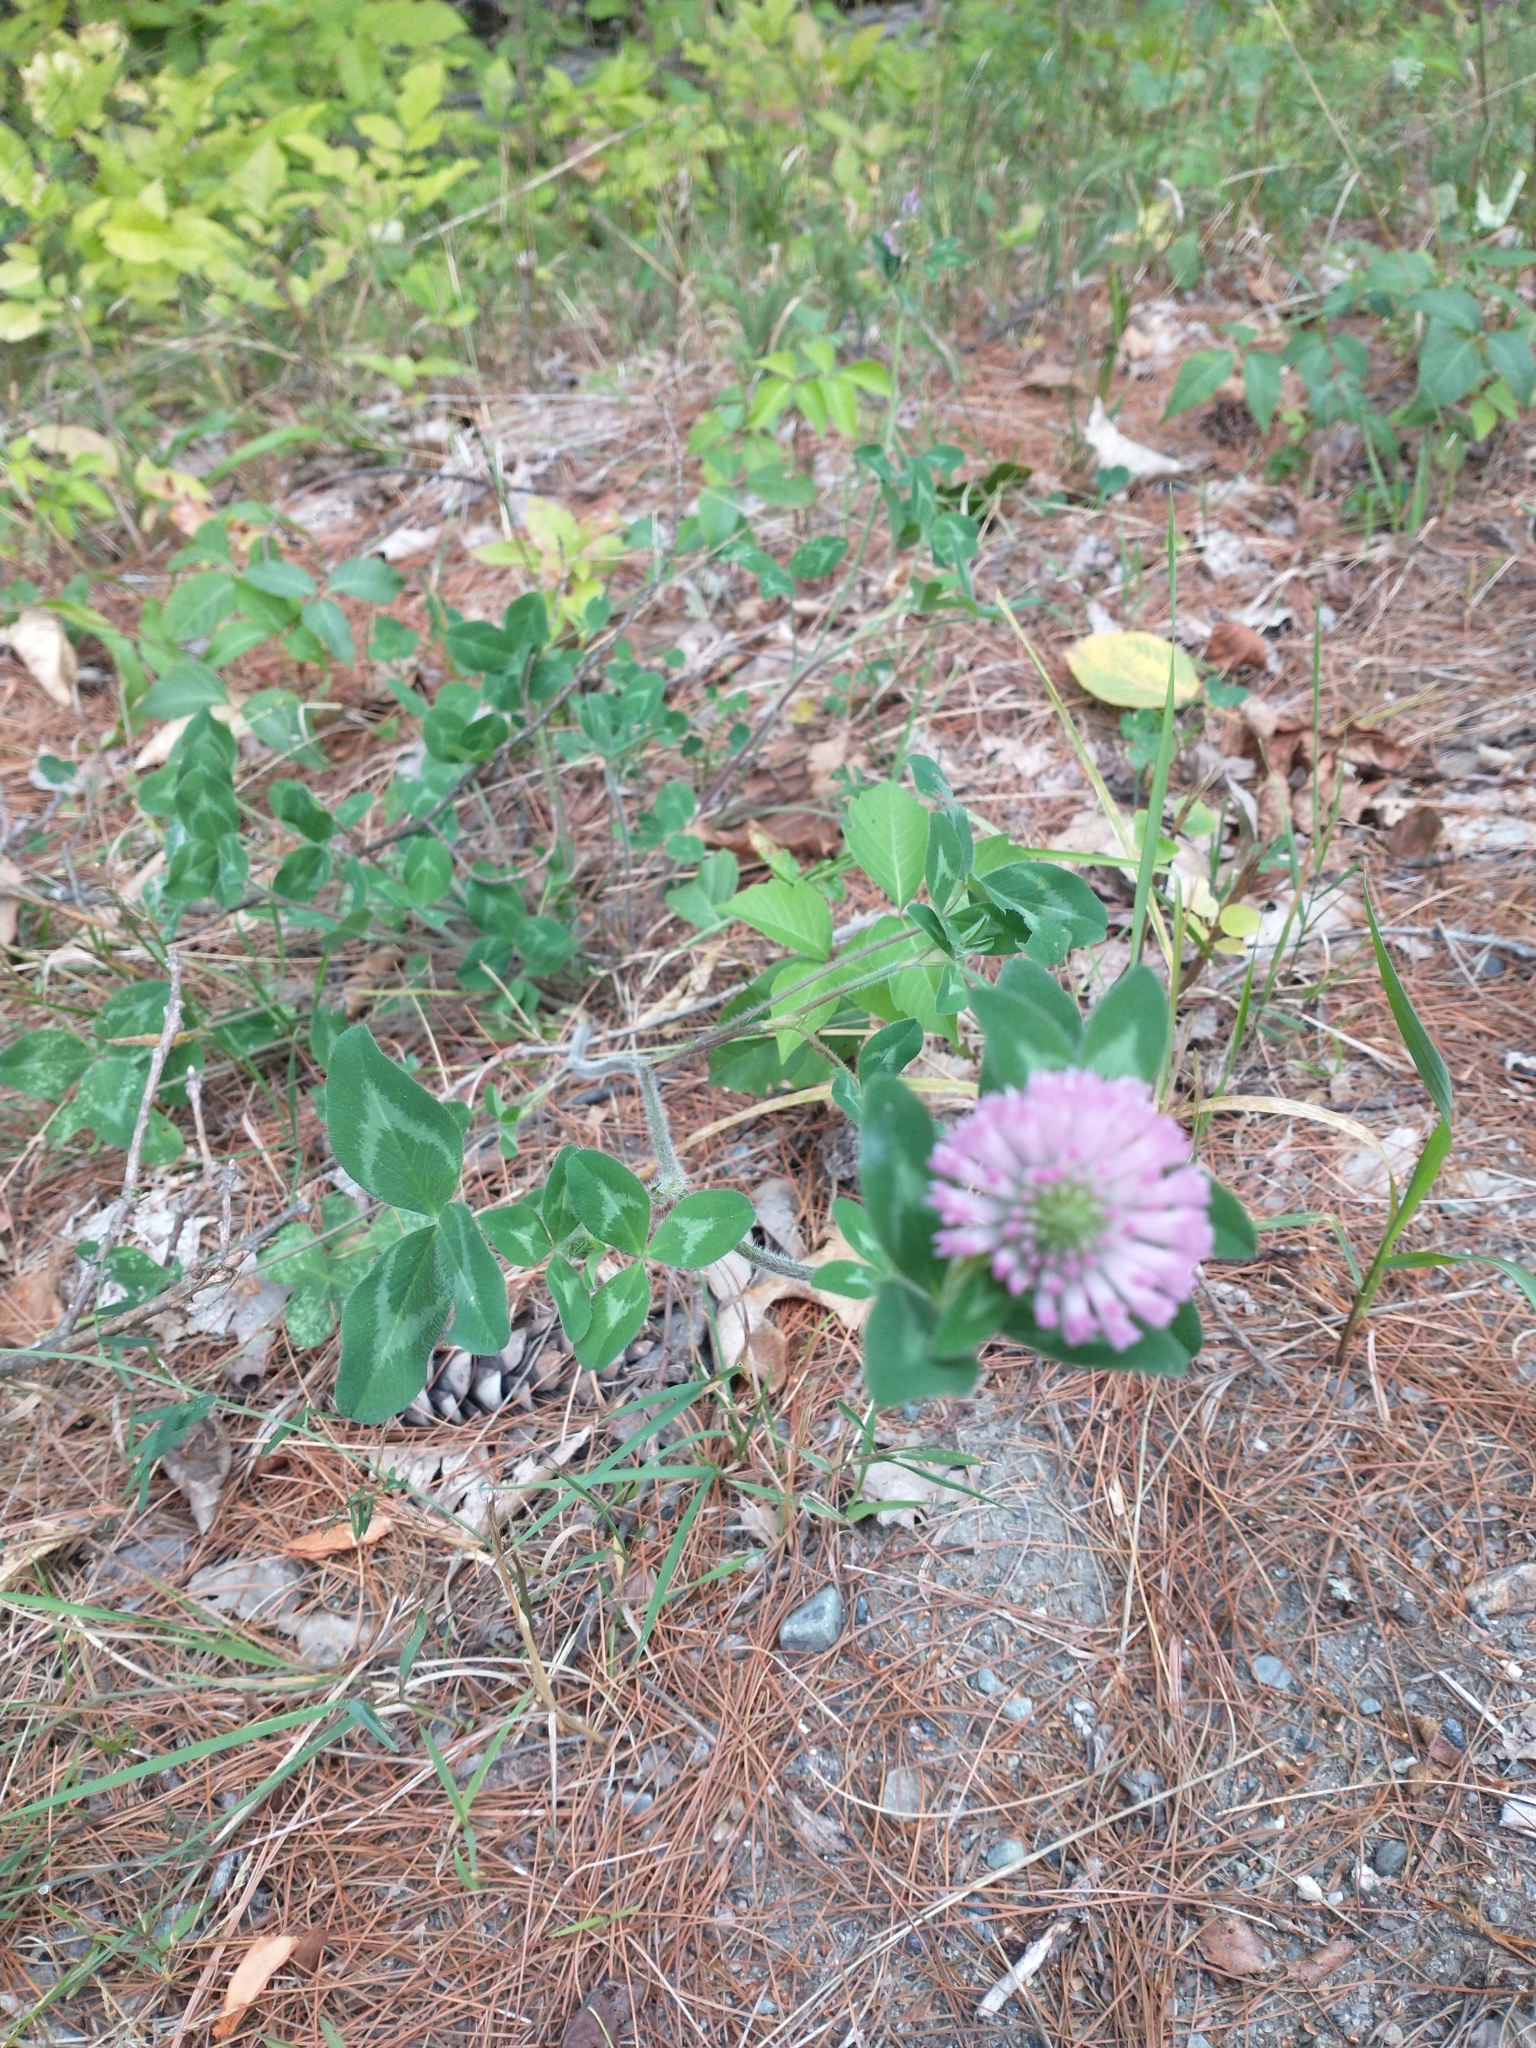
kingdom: Plantae
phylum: Tracheophyta
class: Magnoliopsida
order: Fabales
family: Fabaceae
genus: Trifolium
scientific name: Trifolium pratense
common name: Red clover
